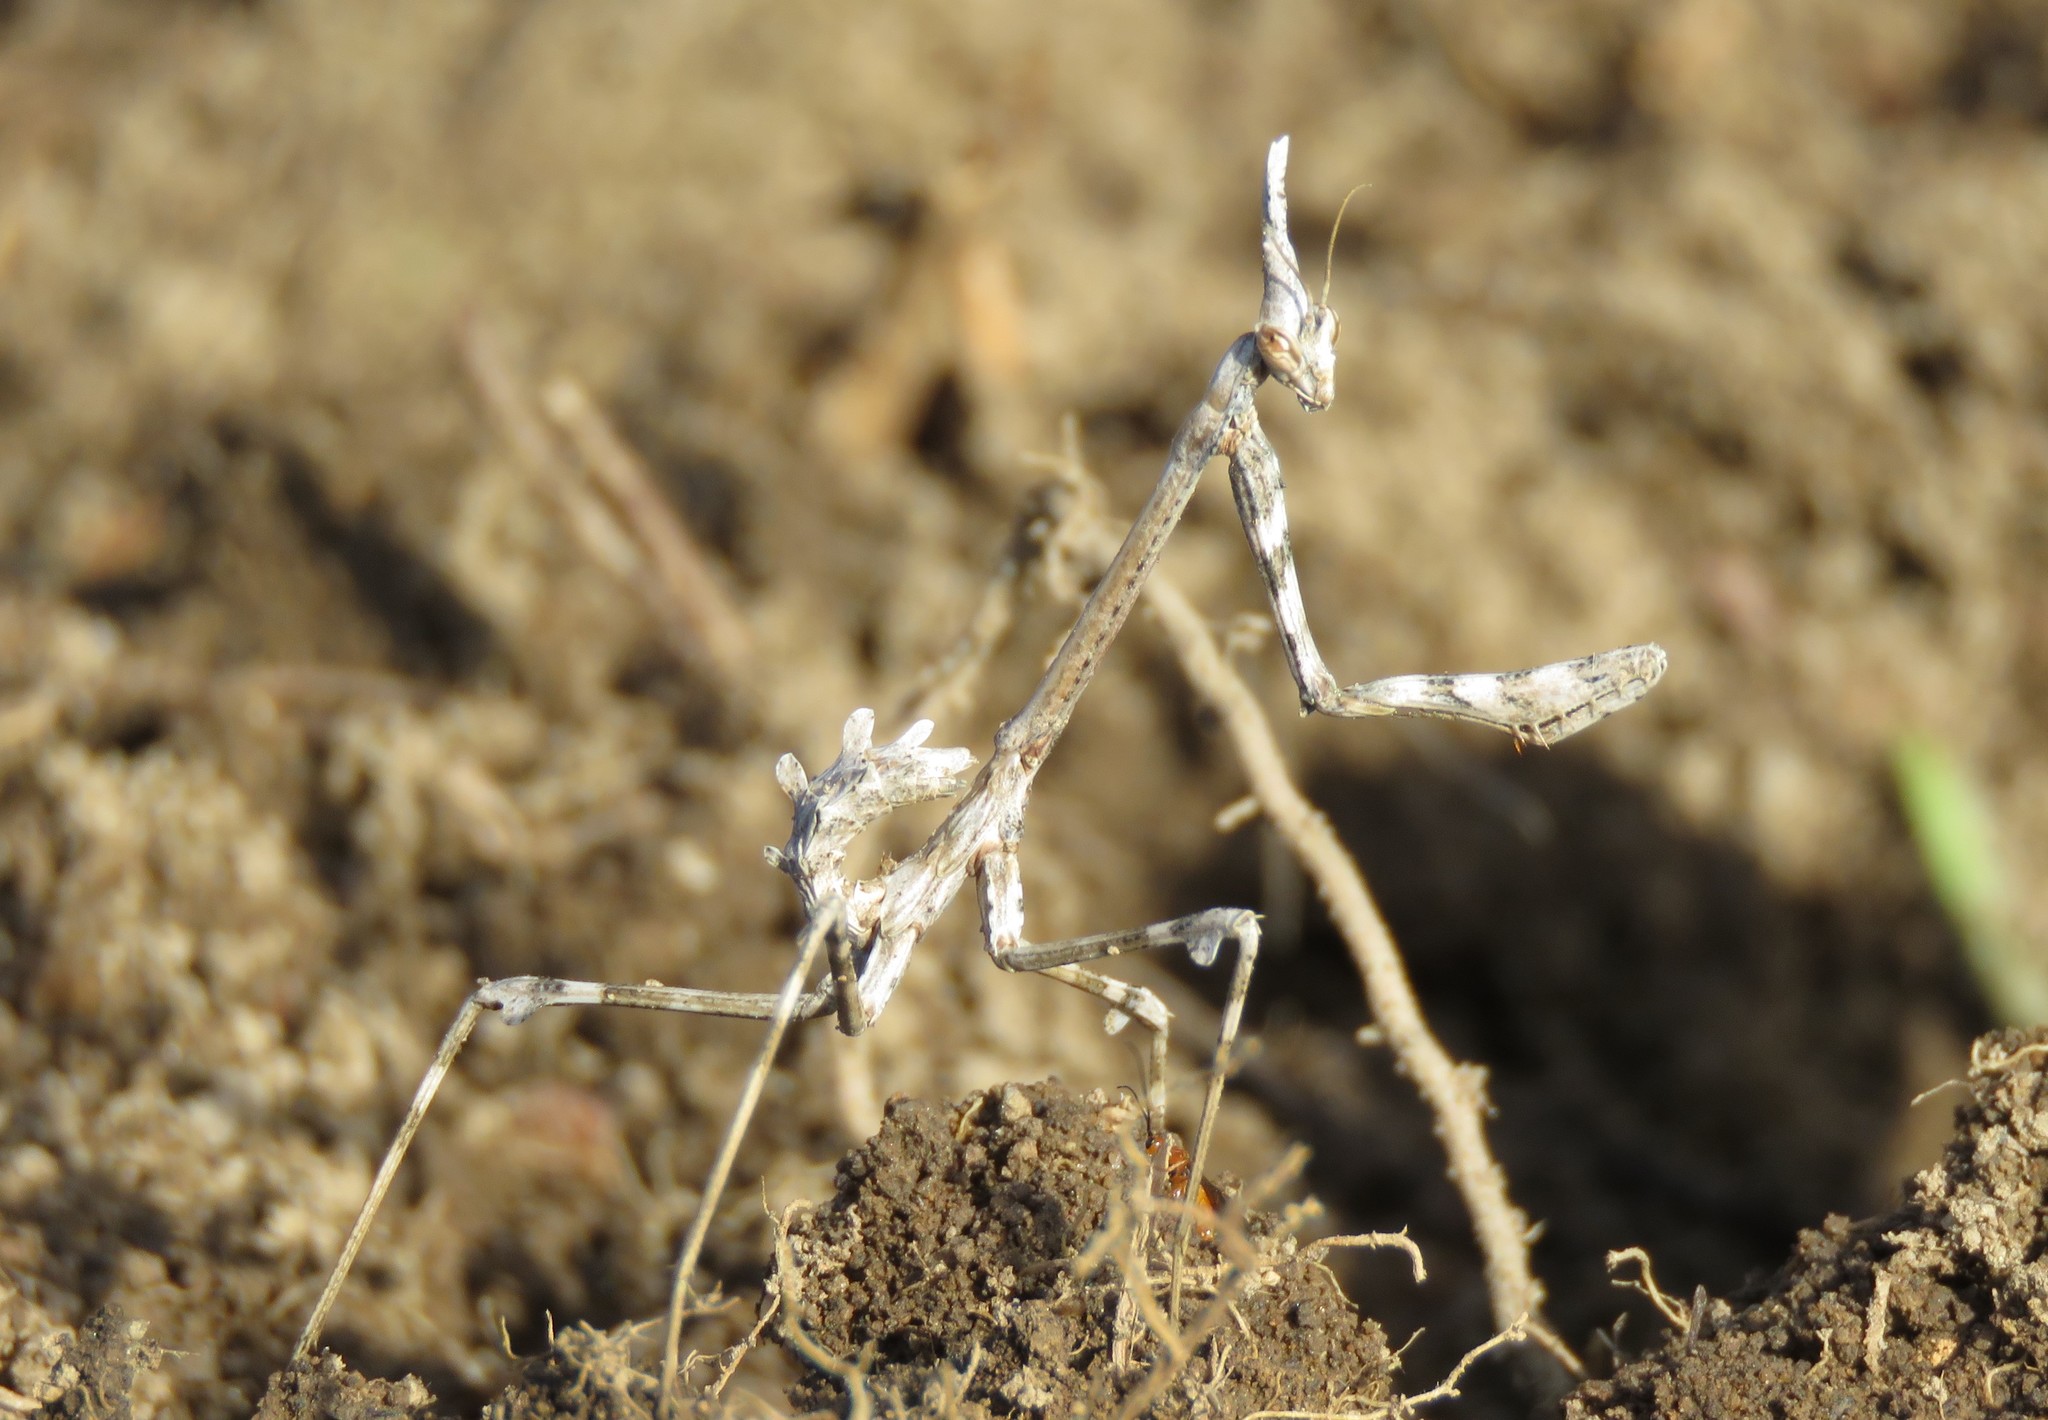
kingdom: Animalia
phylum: Arthropoda
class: Insecta
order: Mantodea
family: Empusidae
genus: Empusa
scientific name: Empusa pennata
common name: Conehead mantis
